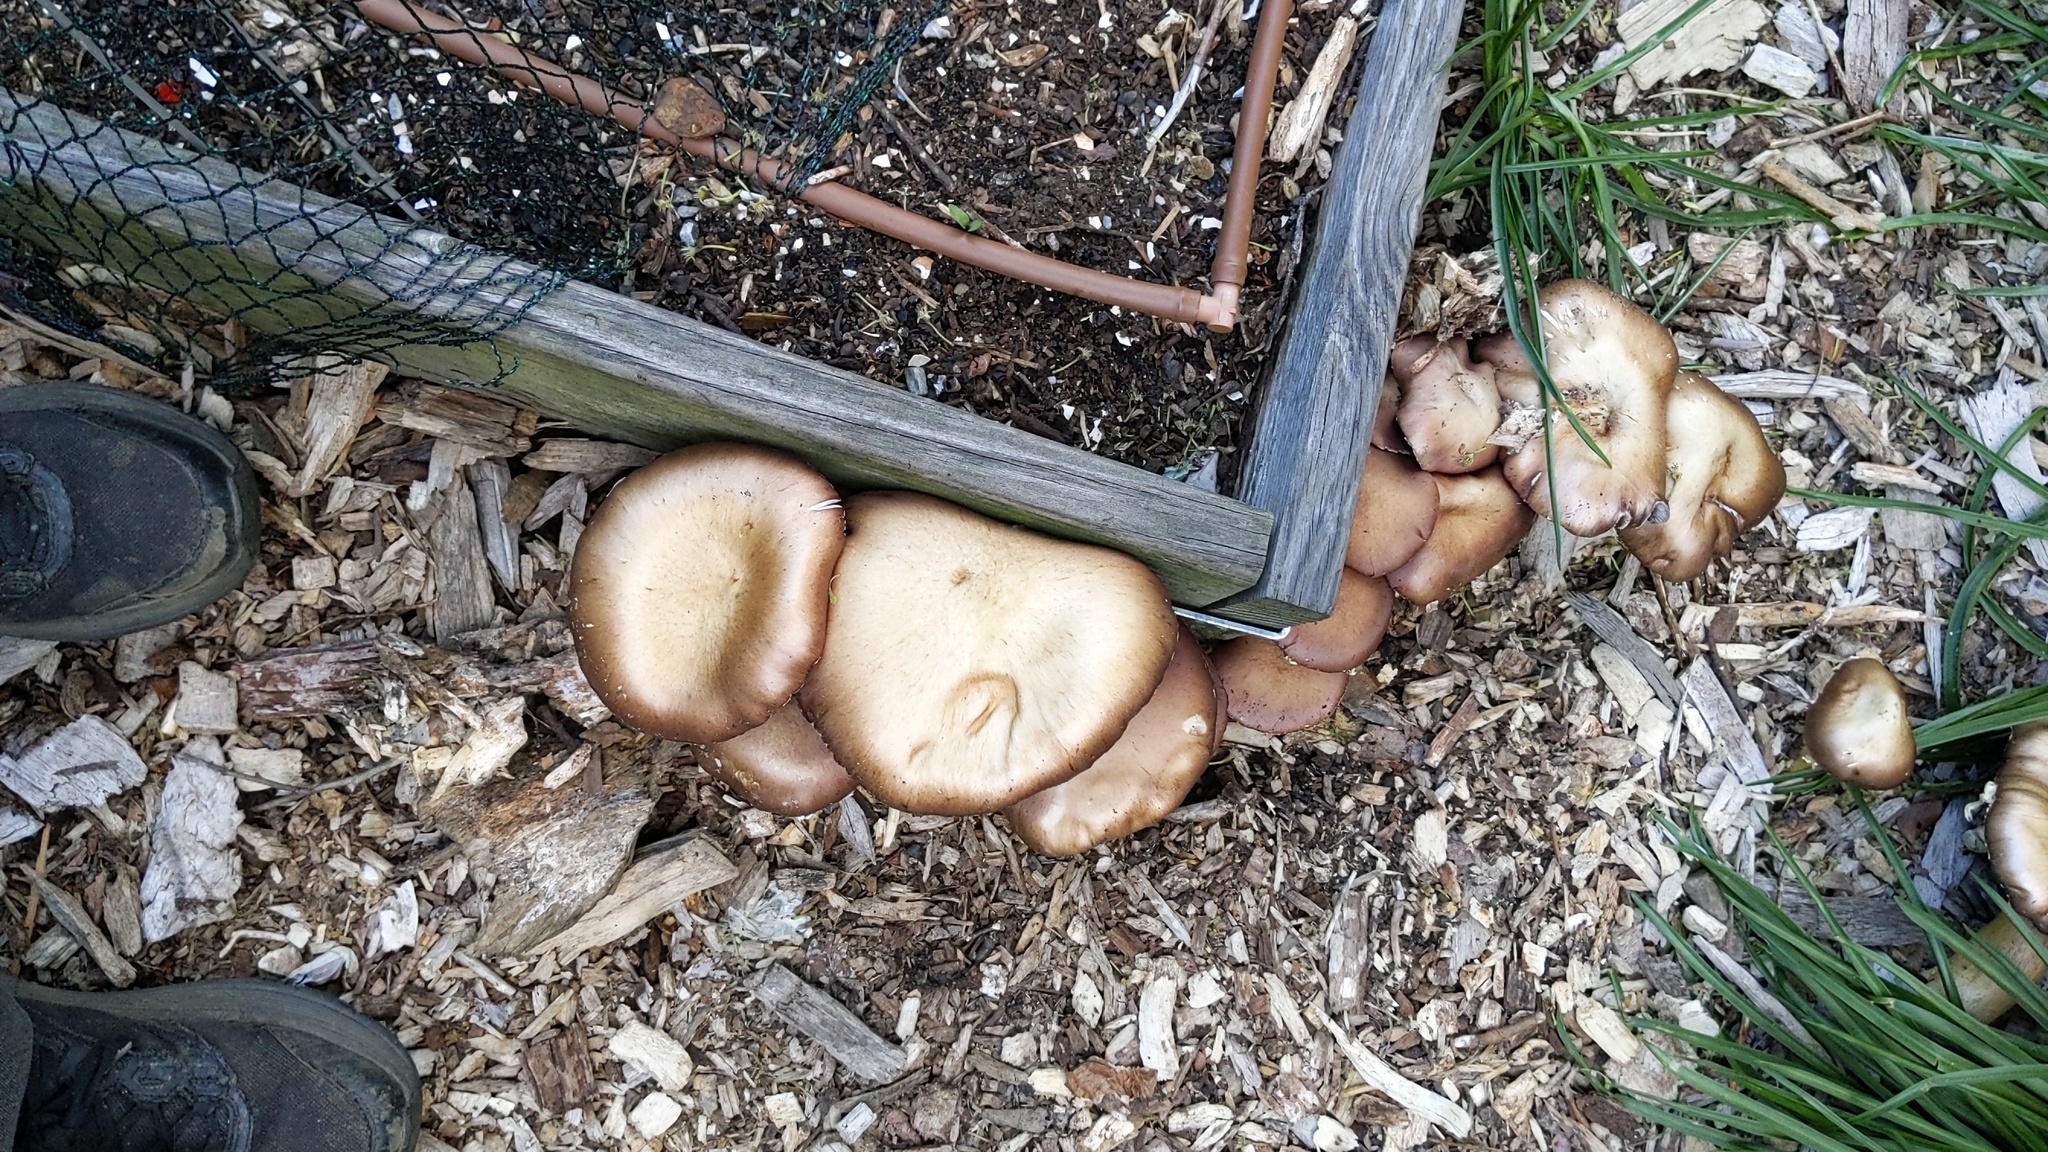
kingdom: Fungi
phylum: Basidiomycota
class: Agaricomycetes
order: Agaricales
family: Strophariaceae
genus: Stropharia
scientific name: Stropharia rugosoannulata
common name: Wine roundhead
